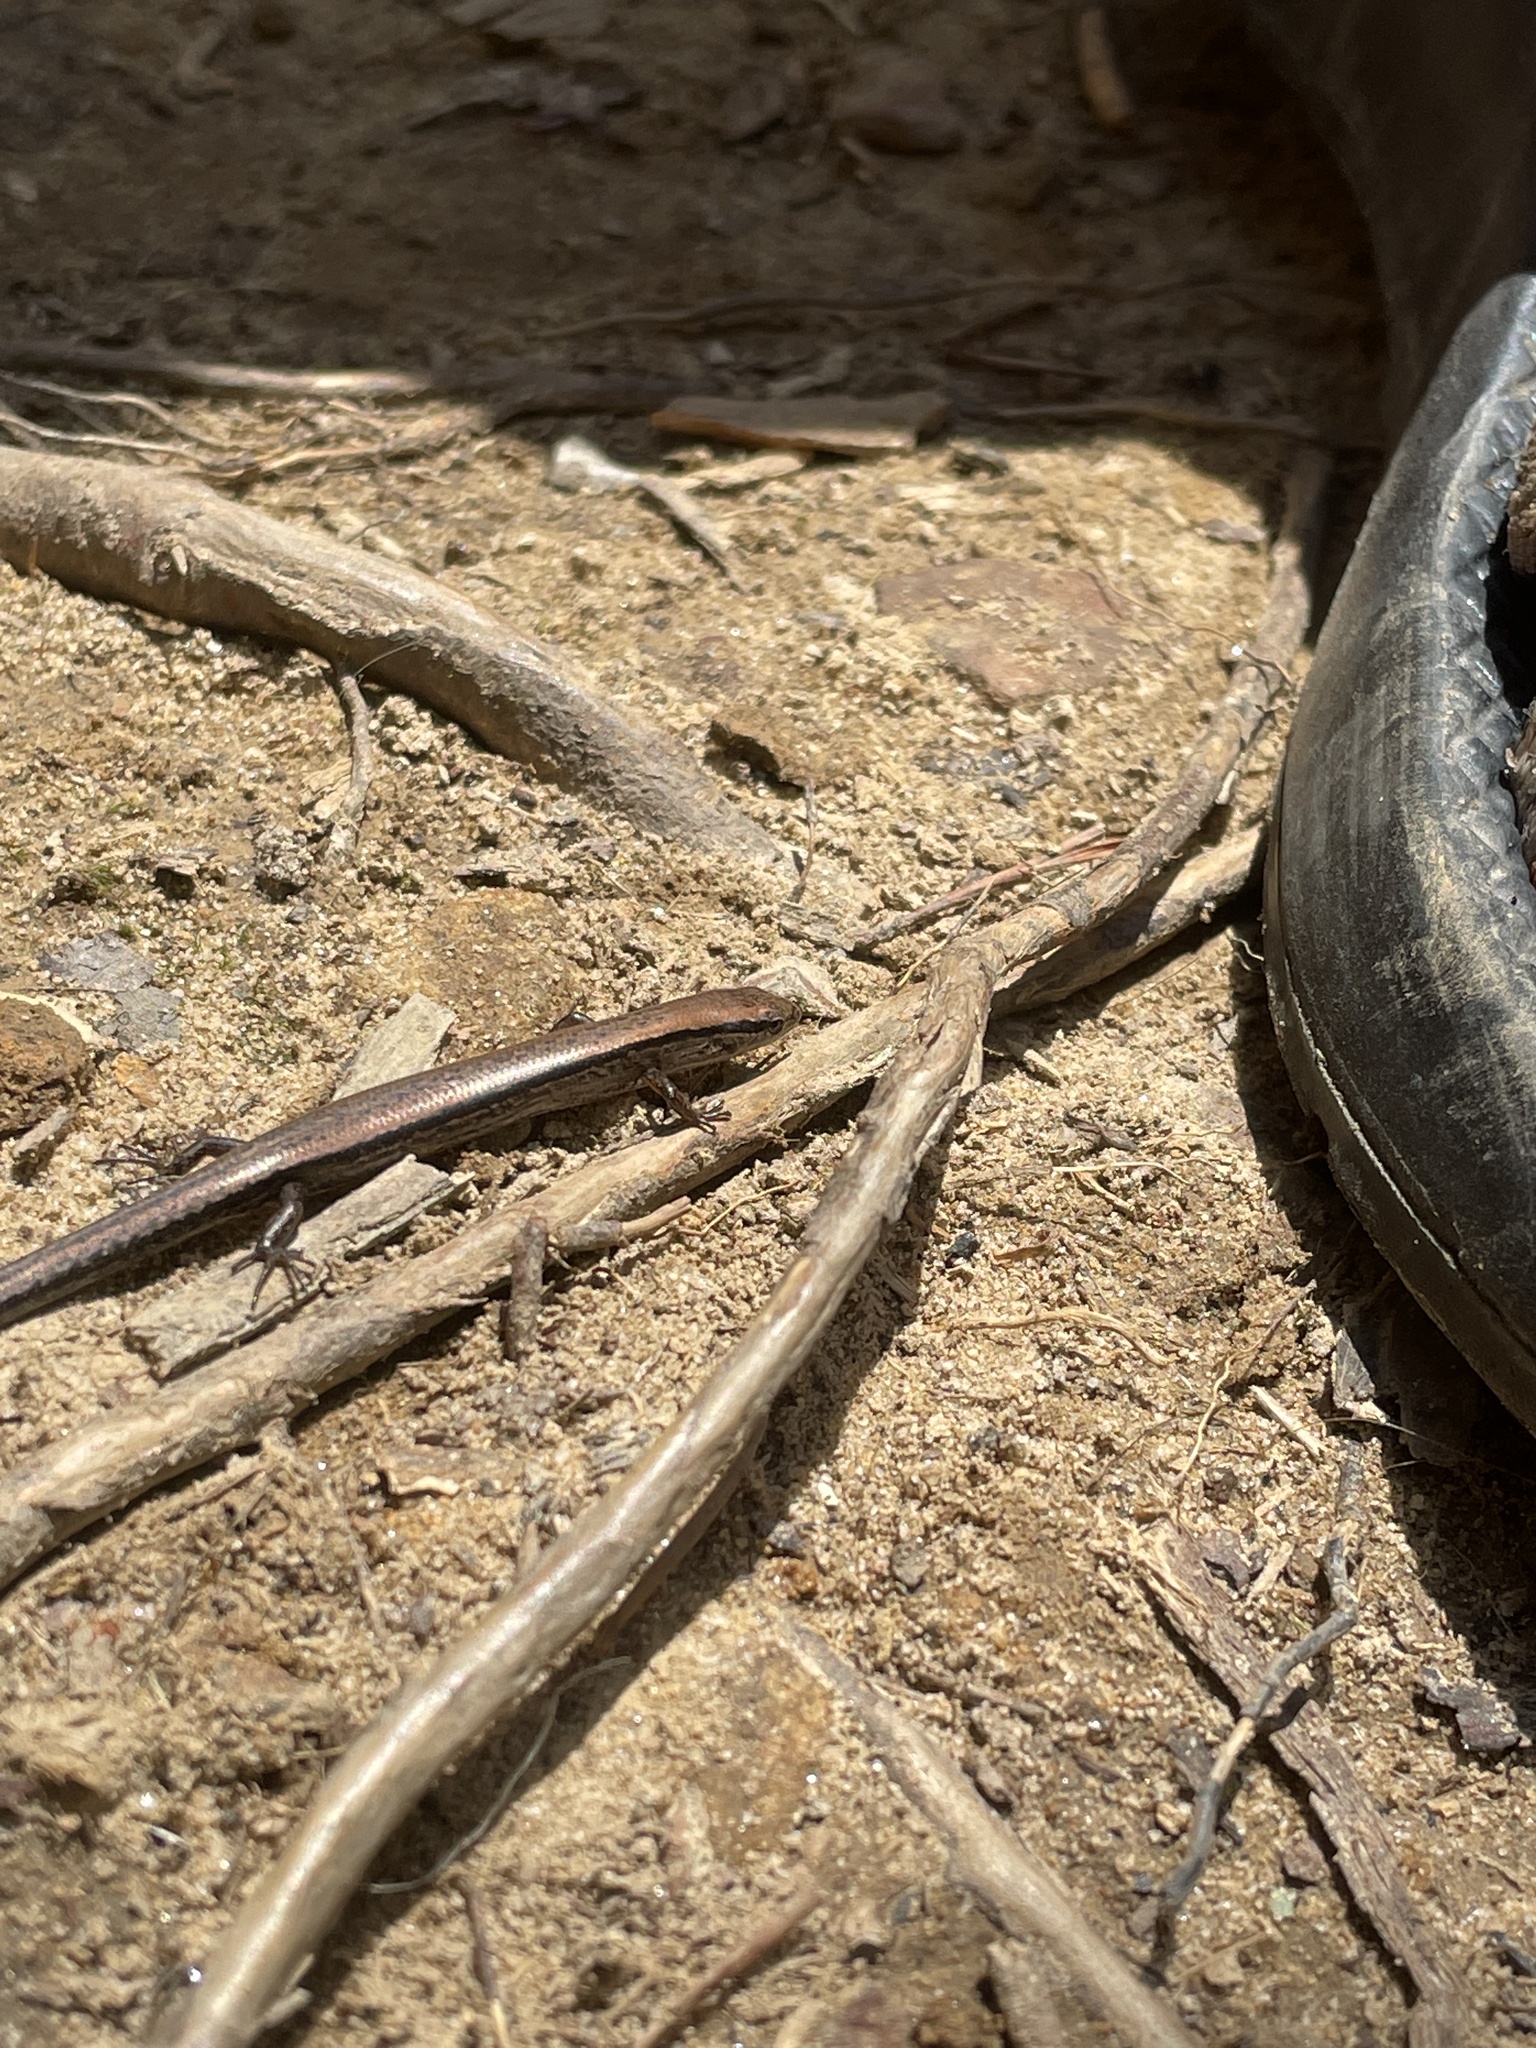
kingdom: Animalia
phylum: Chordata
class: Squamata
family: Scincidae
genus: Scincella
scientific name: Scincella lateralis
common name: Ground skink
